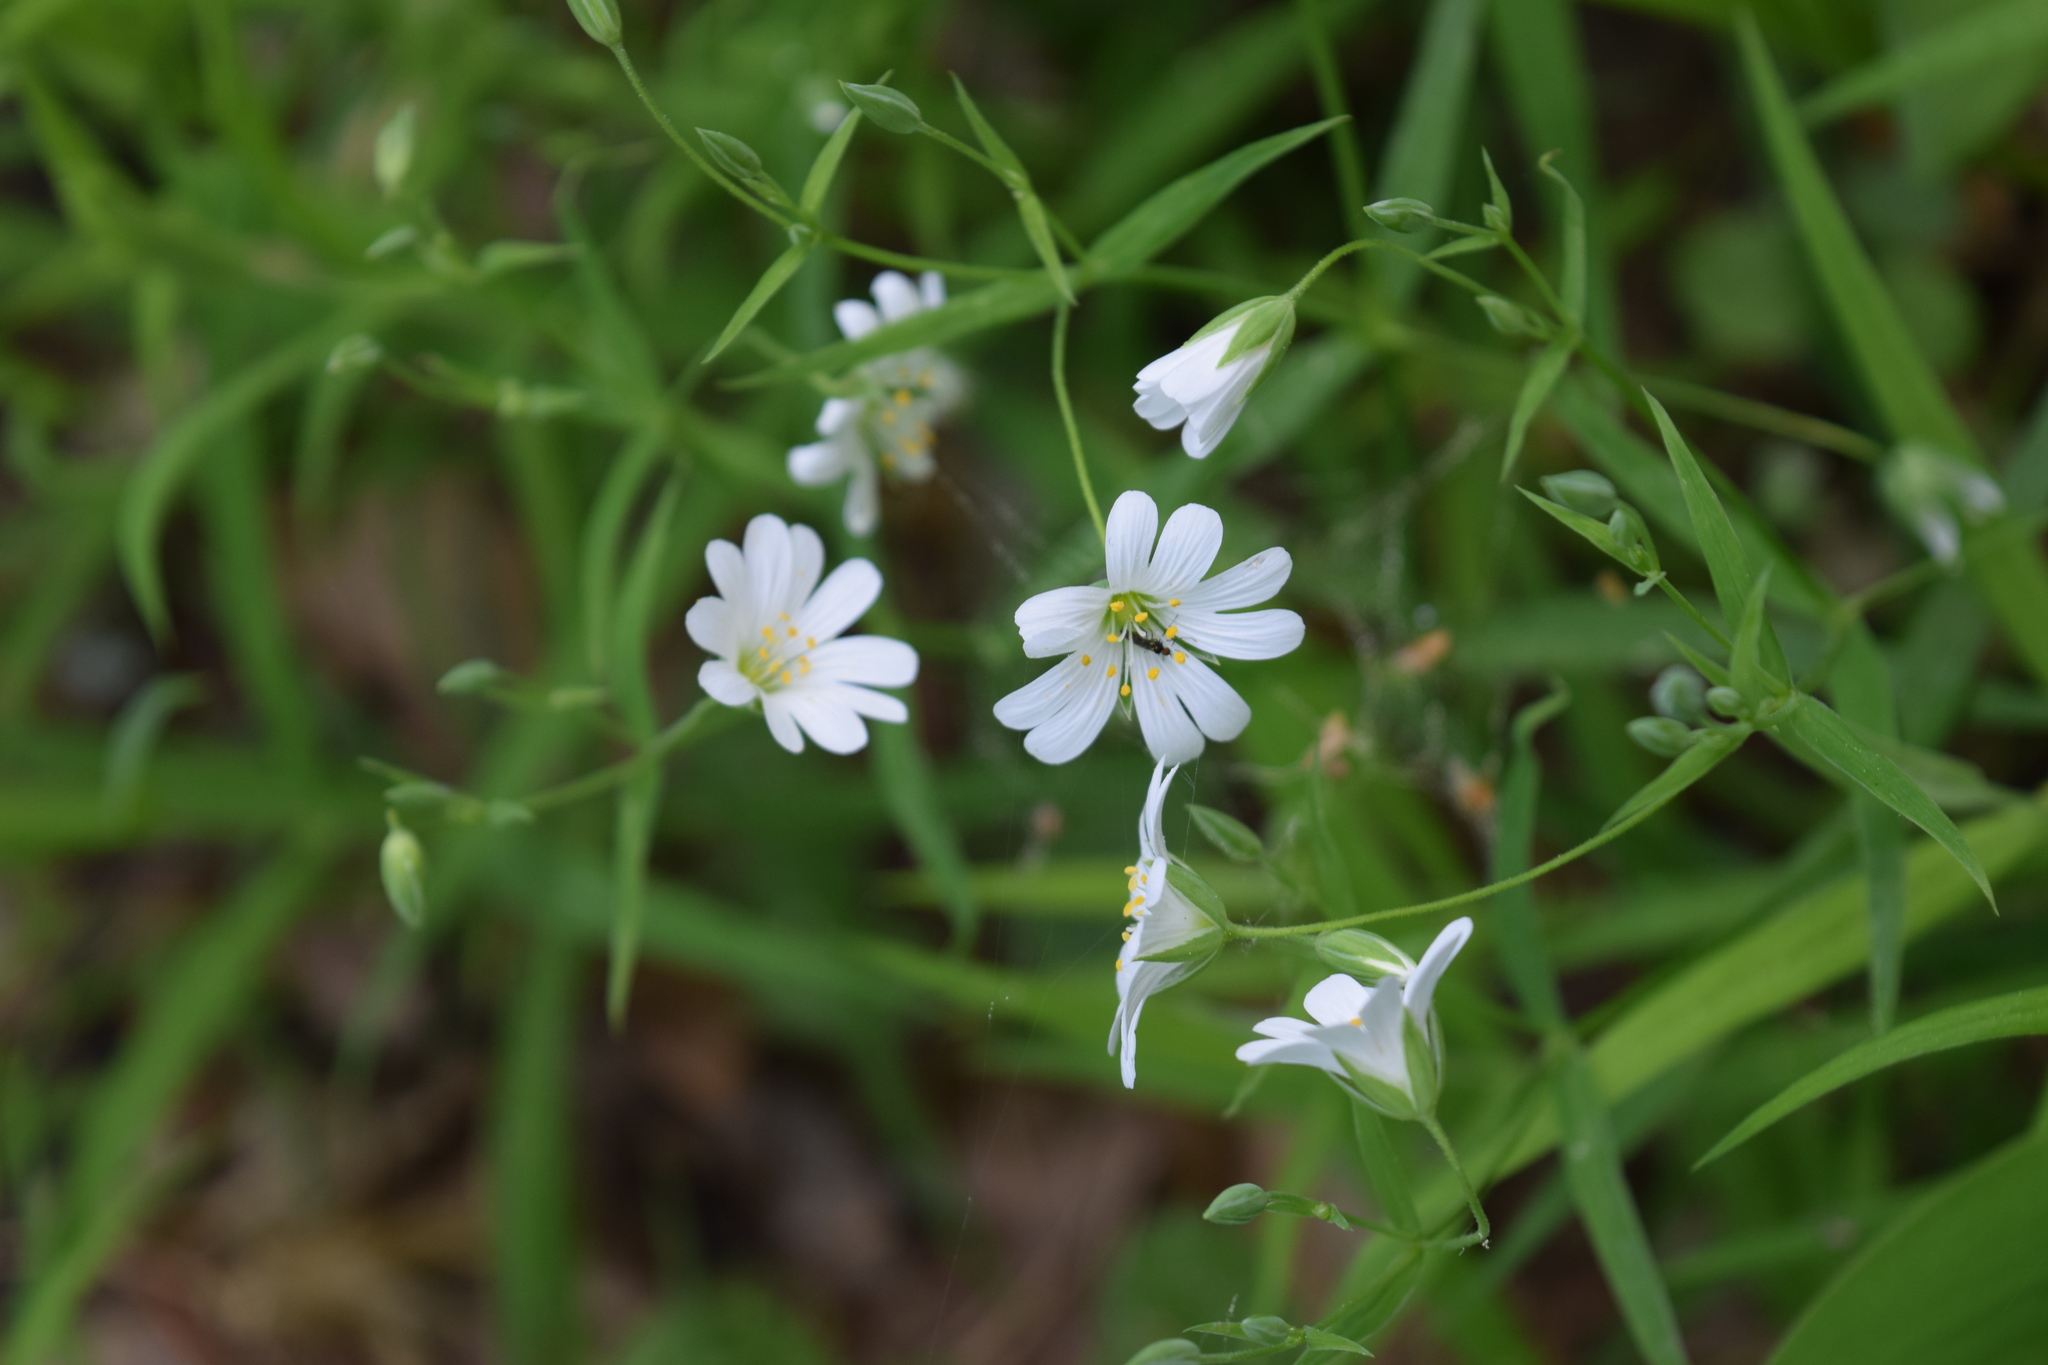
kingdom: Plantae
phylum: Tracheophyta
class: Magnoliopsida
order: Caryophyllales
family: Caryophyllaceae
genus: Rabelera
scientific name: Rabelera holostea
